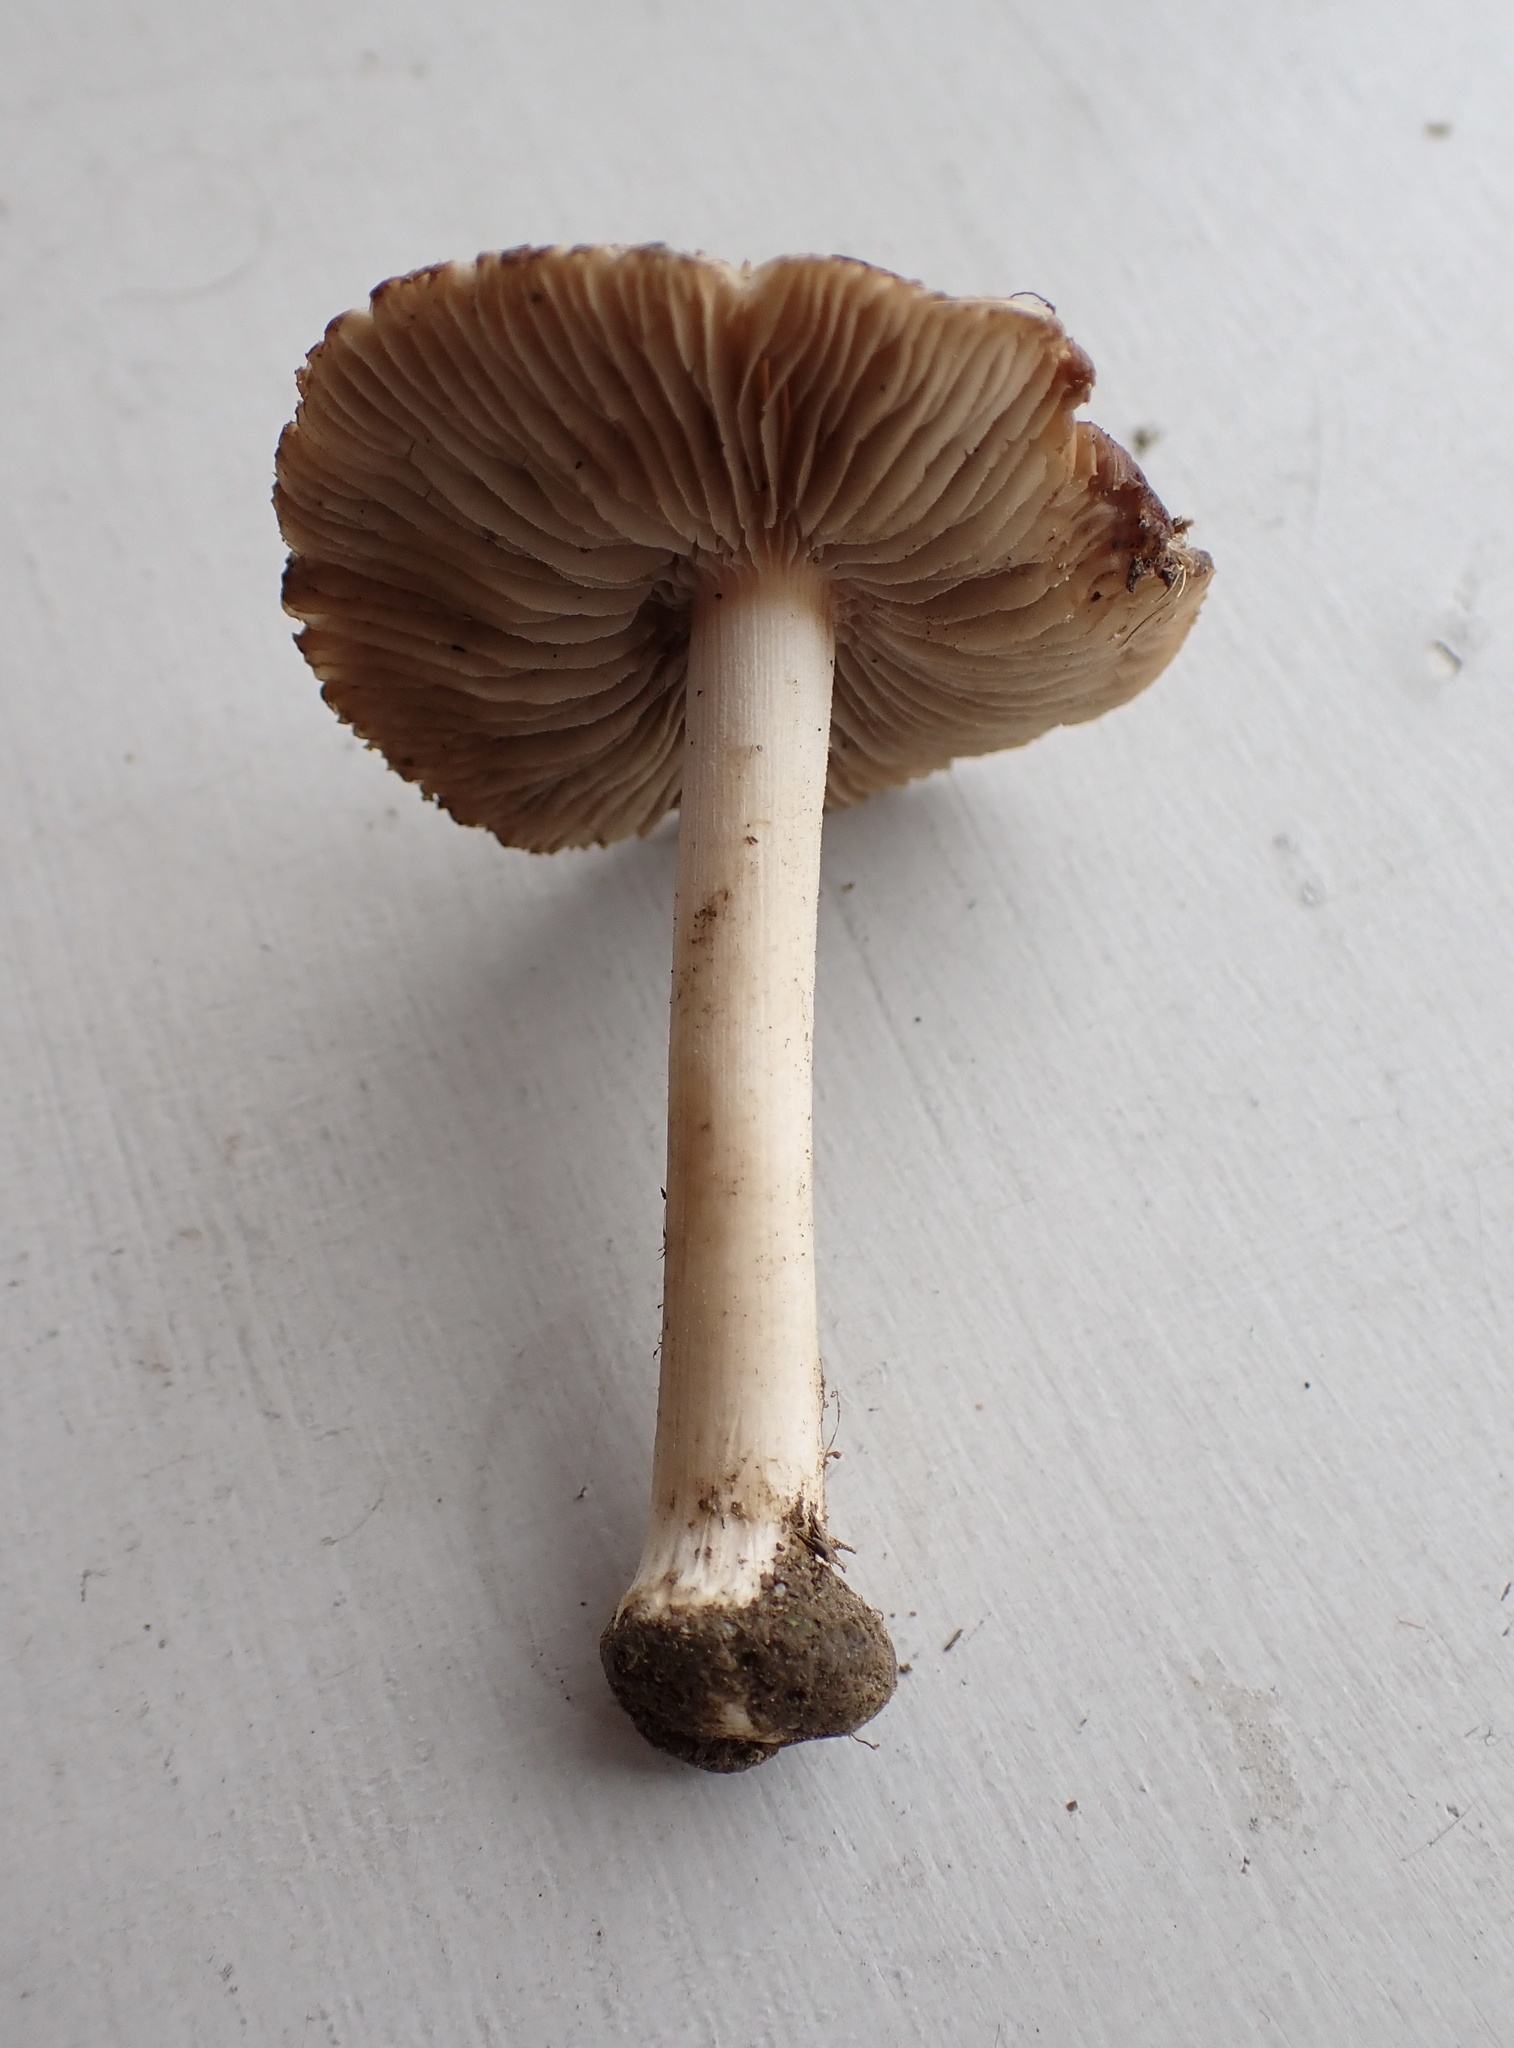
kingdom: Fungi
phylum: Basidiomycota
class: Agaricomycetes
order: Agaricales
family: Inocybaceae
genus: Inocybe
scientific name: Inocybe velicopia
